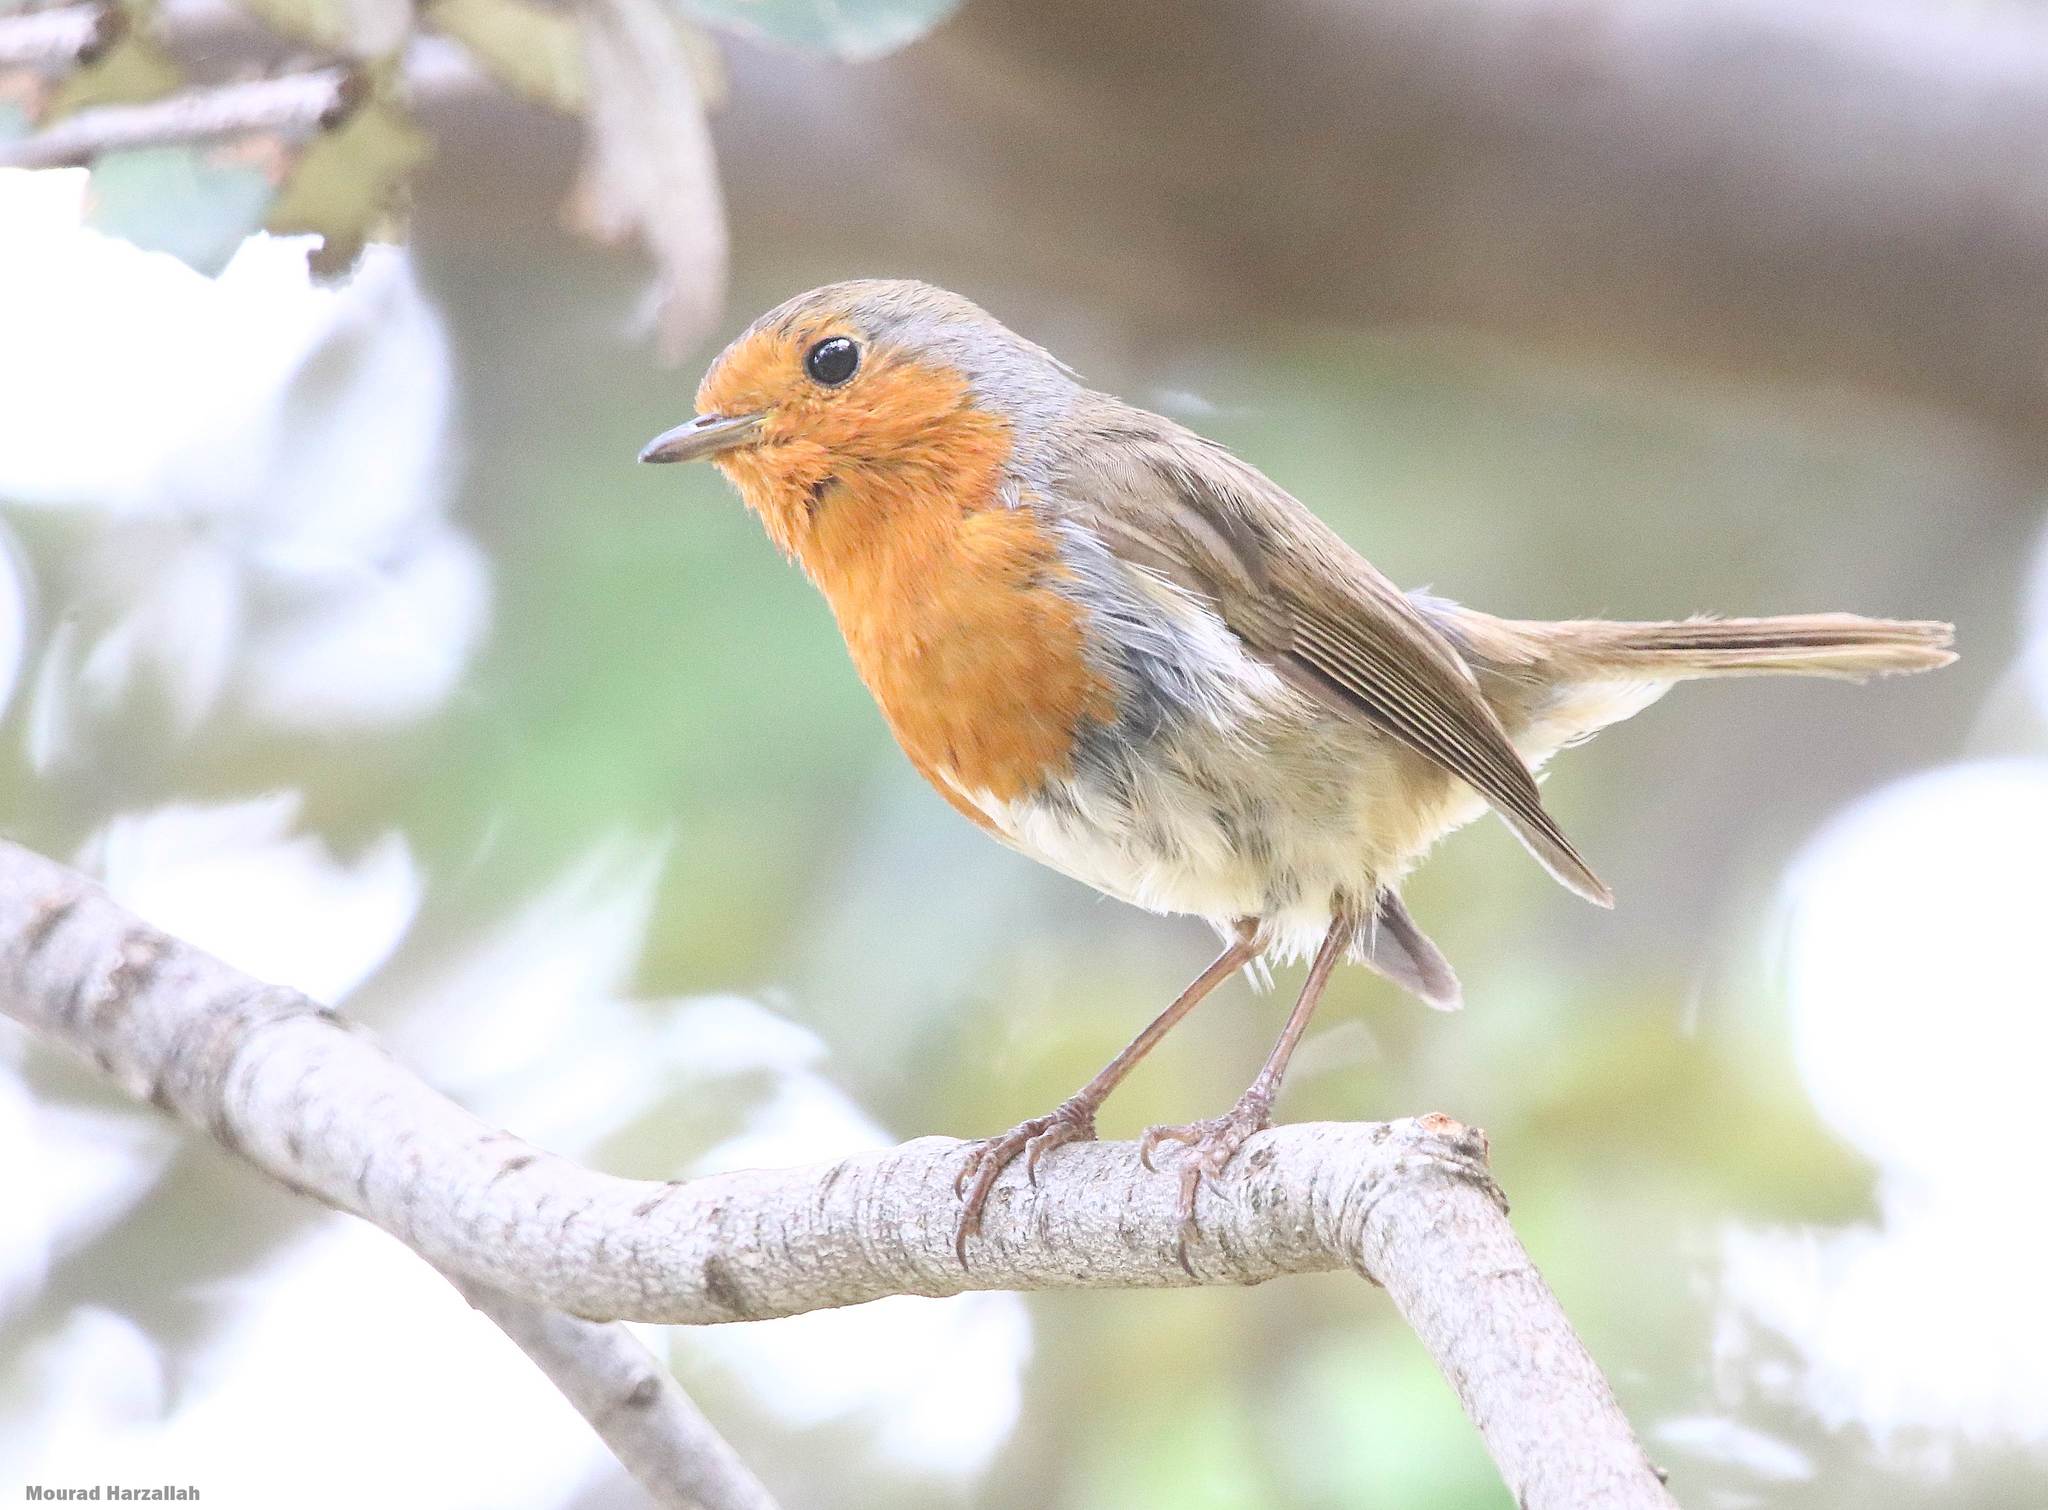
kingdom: Animalia
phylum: Chordata
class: Aves
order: Passeriformes
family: Muscicapidae
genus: Erithacus
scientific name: Erithacus rubecula
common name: European robin
